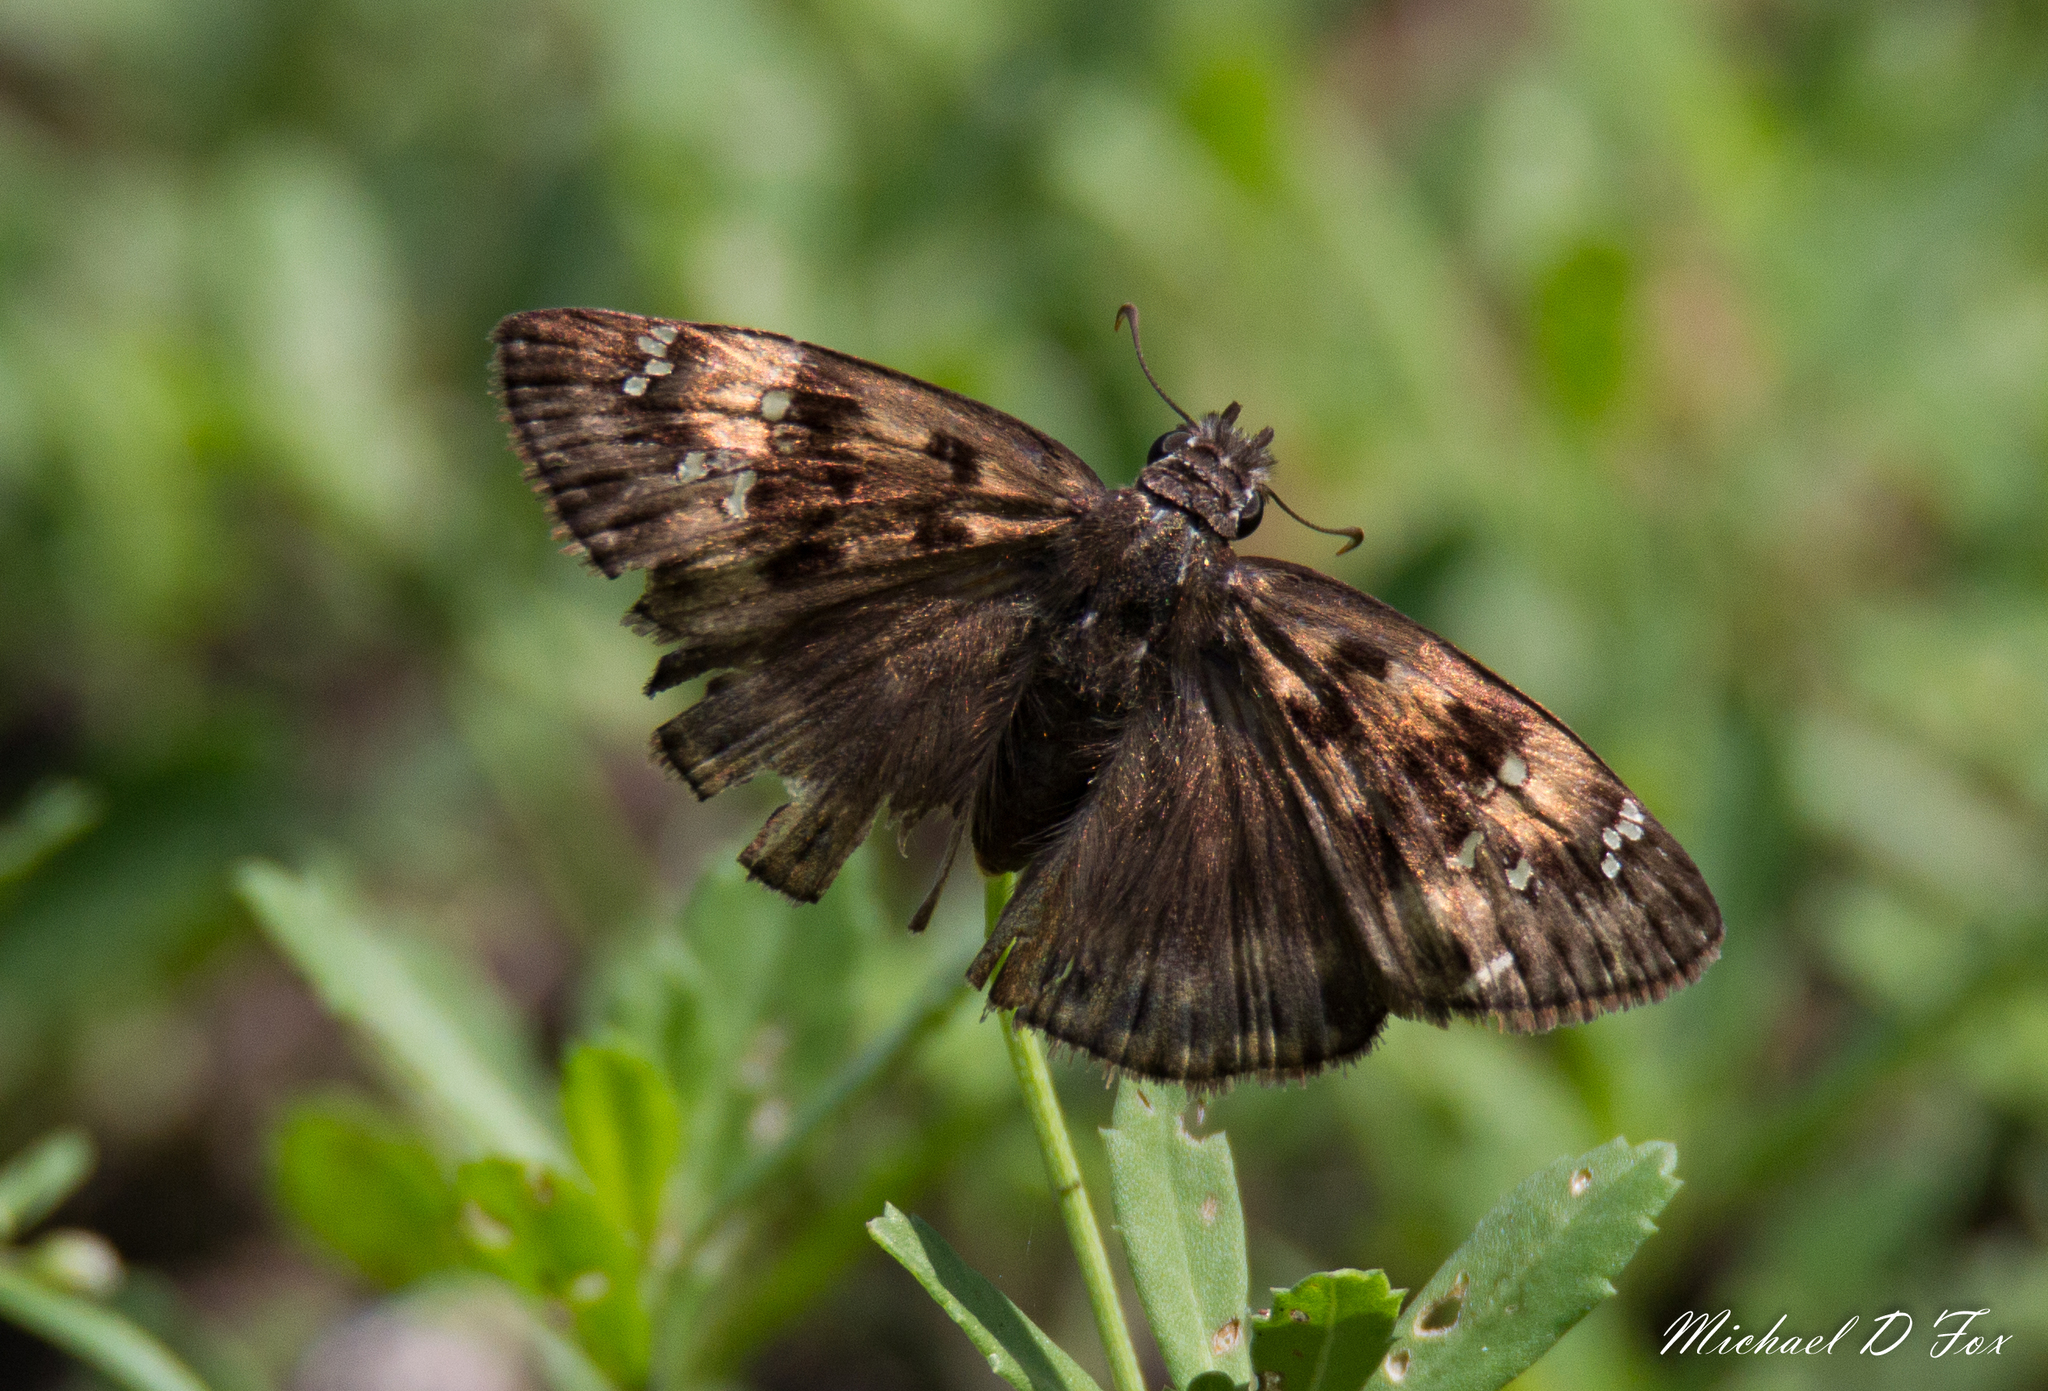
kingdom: Animalia
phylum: Arthropoda
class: Insecta
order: Lepidoptera
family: Hesperiidae
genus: Erynnis
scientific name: Erynnis horatius
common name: Horace's duskywing
